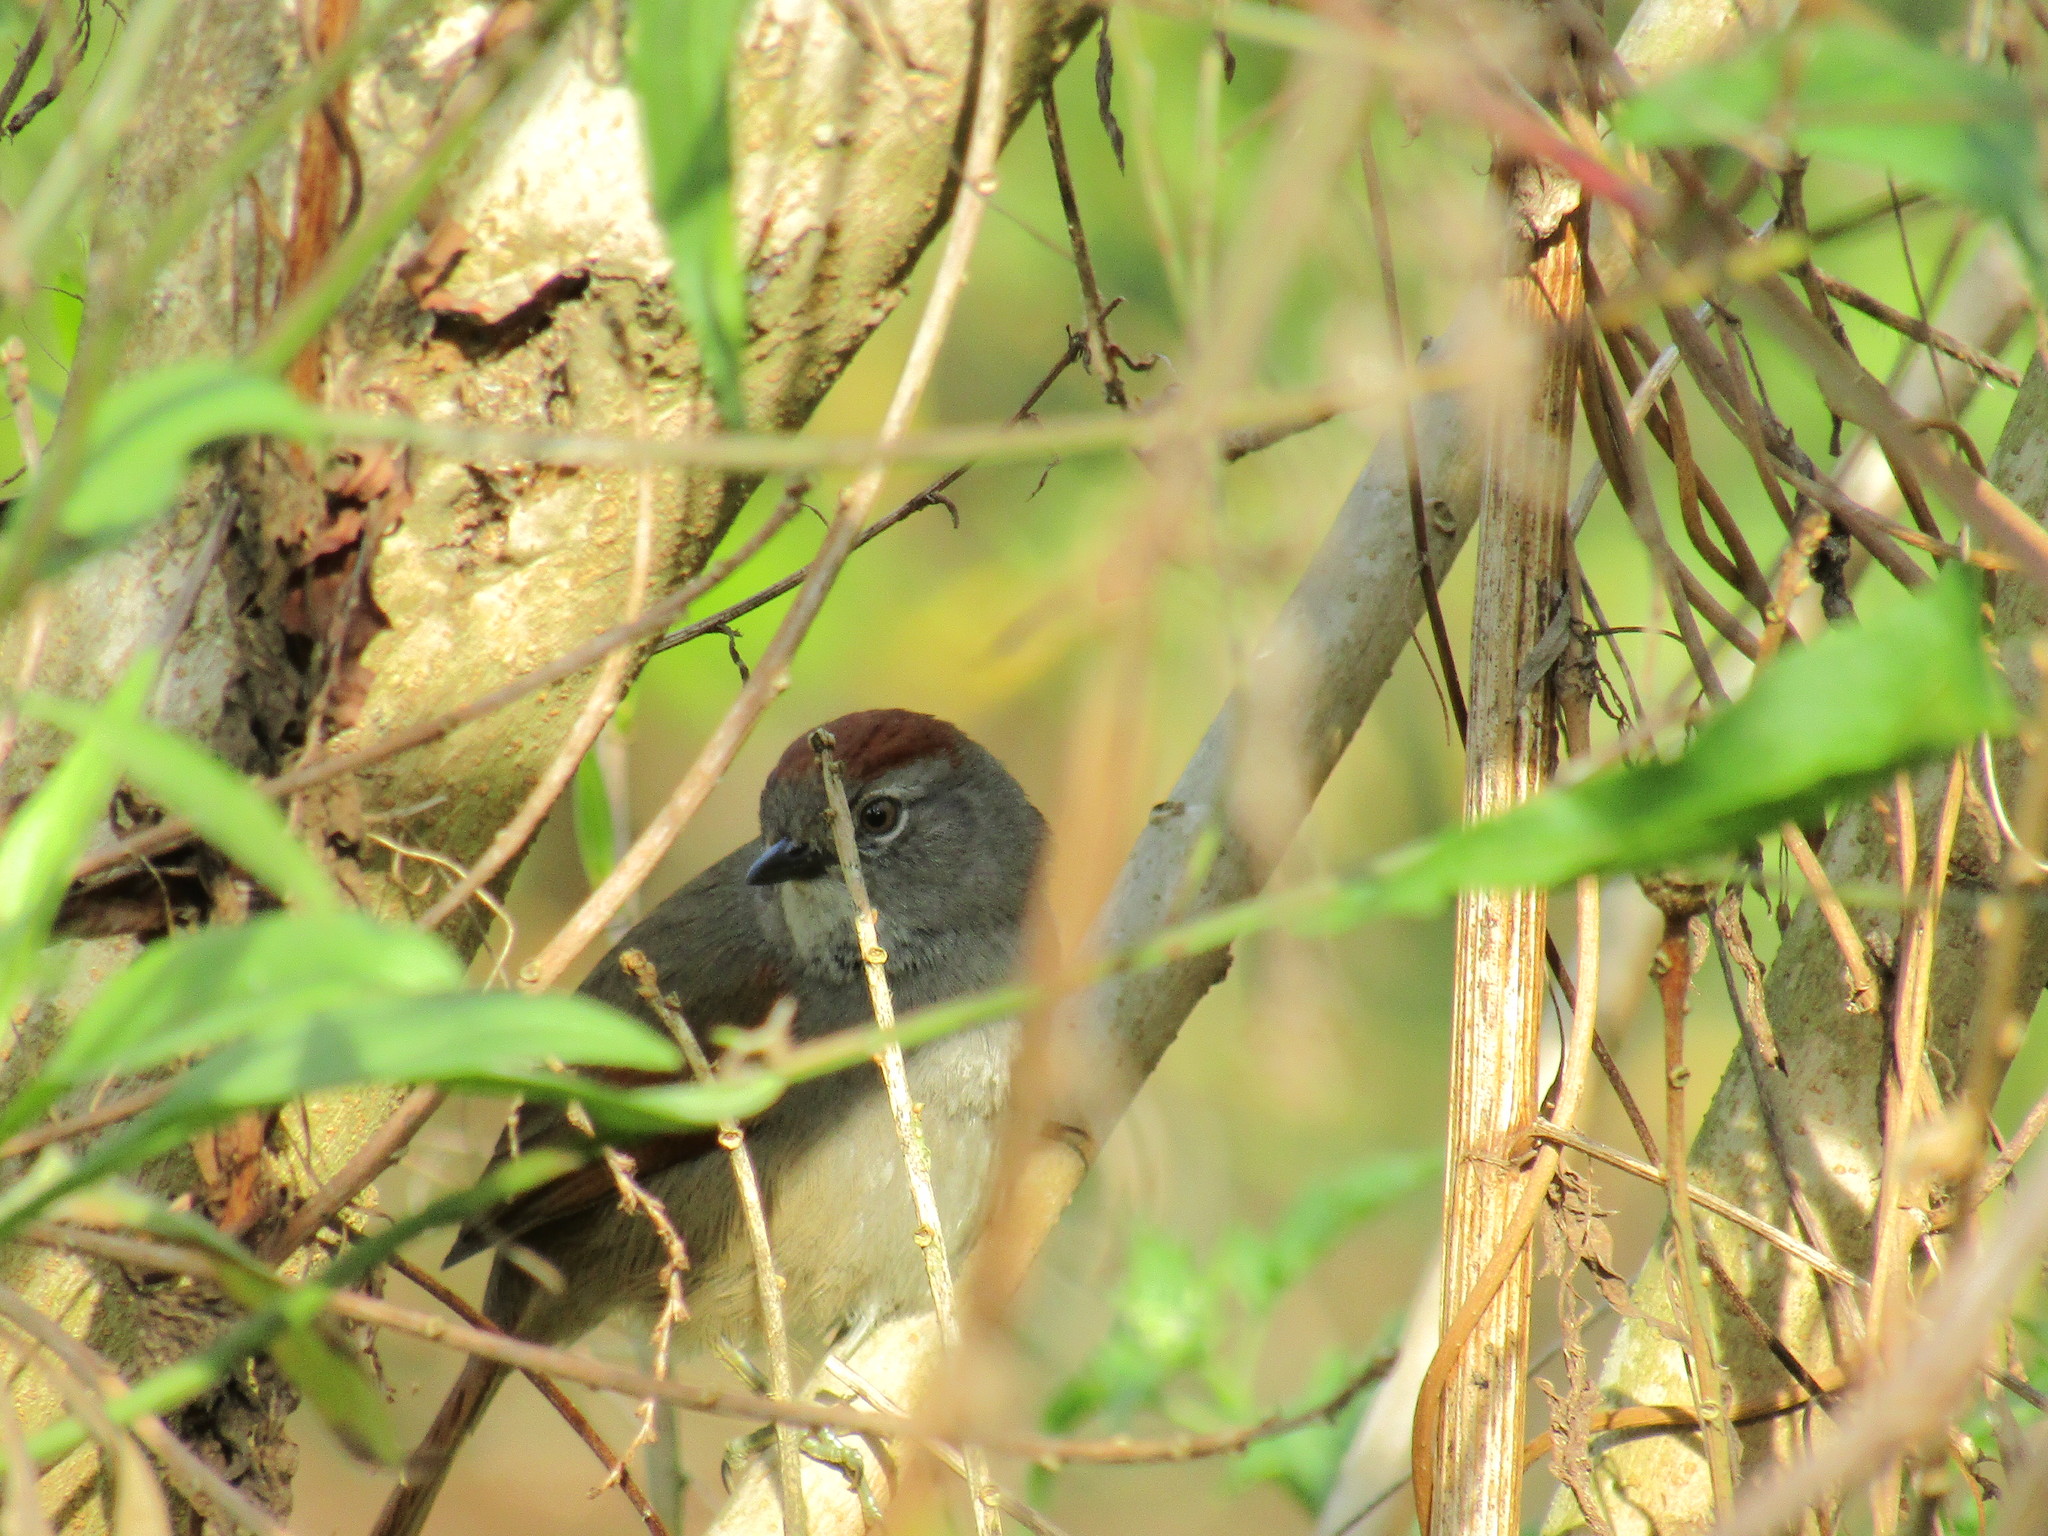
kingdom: Animalia
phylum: Chordata
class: Aves
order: Passeriformes
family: Furnariidae
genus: Synallaxis
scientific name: Synallaxis frontalis
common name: Sooty-fronted spinetail
